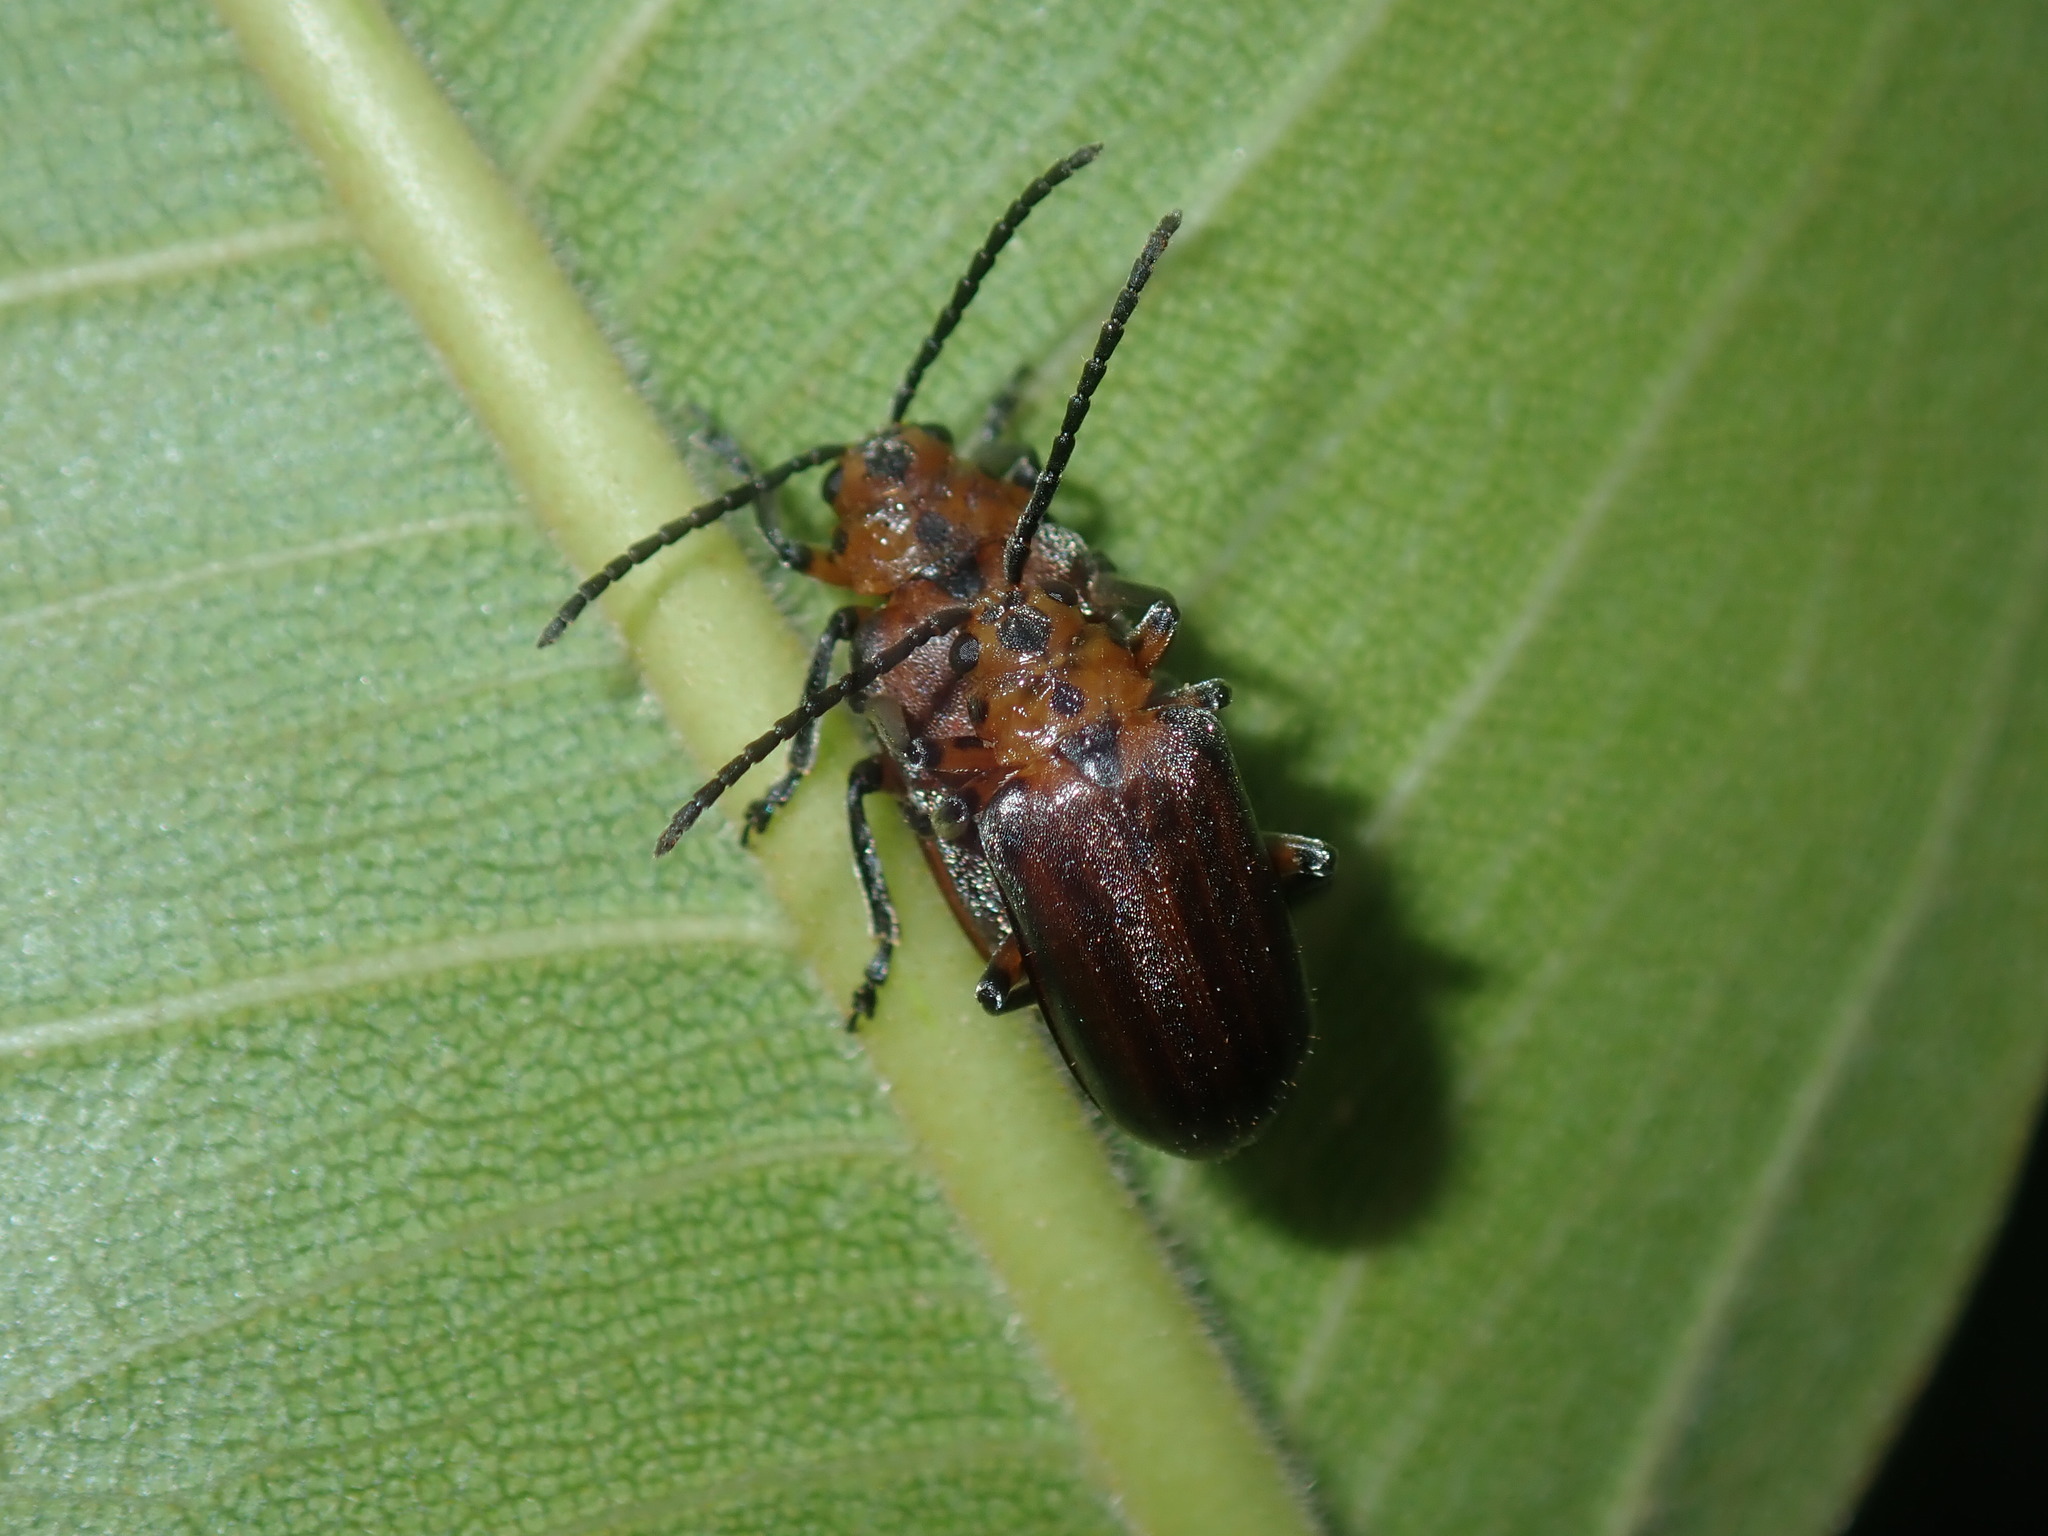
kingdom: Animalia
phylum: Arthropoda
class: Insecta
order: Coleoptera
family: Chrysomelidae
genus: Poneridia
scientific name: Poneridia semipullata
